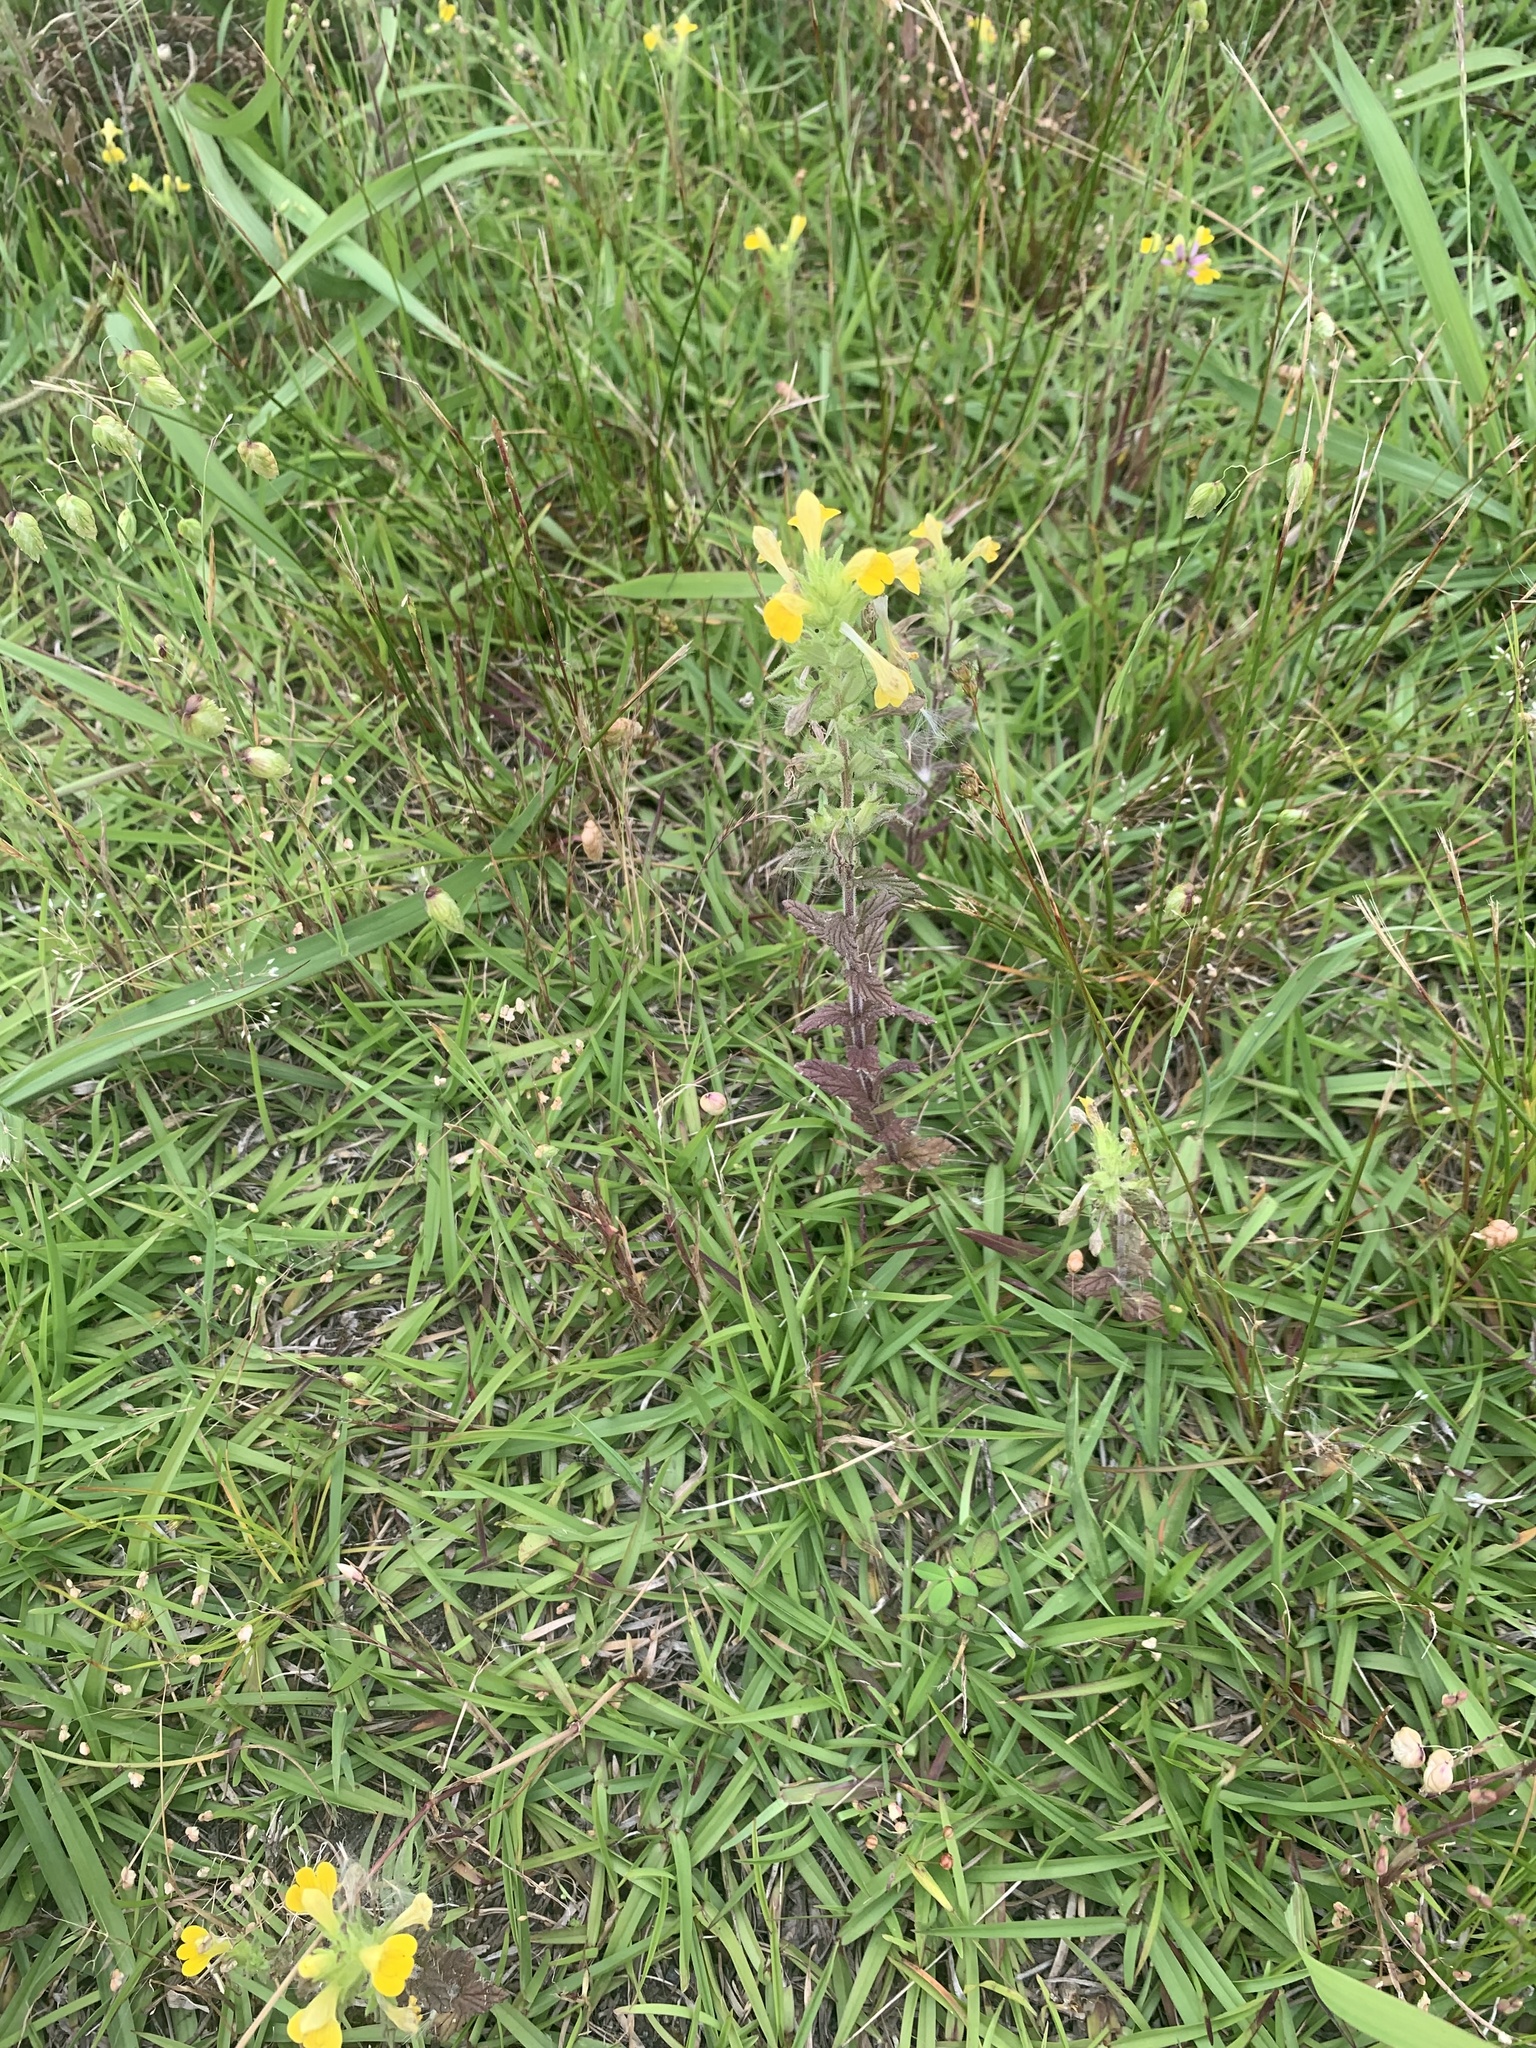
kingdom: Plantae
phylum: Tracheophyta
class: Magnoliopsida
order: Lamiales
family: Orobanchaceae
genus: Bellardia
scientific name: Bellardia viscosa
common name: Sticky parentucellia
